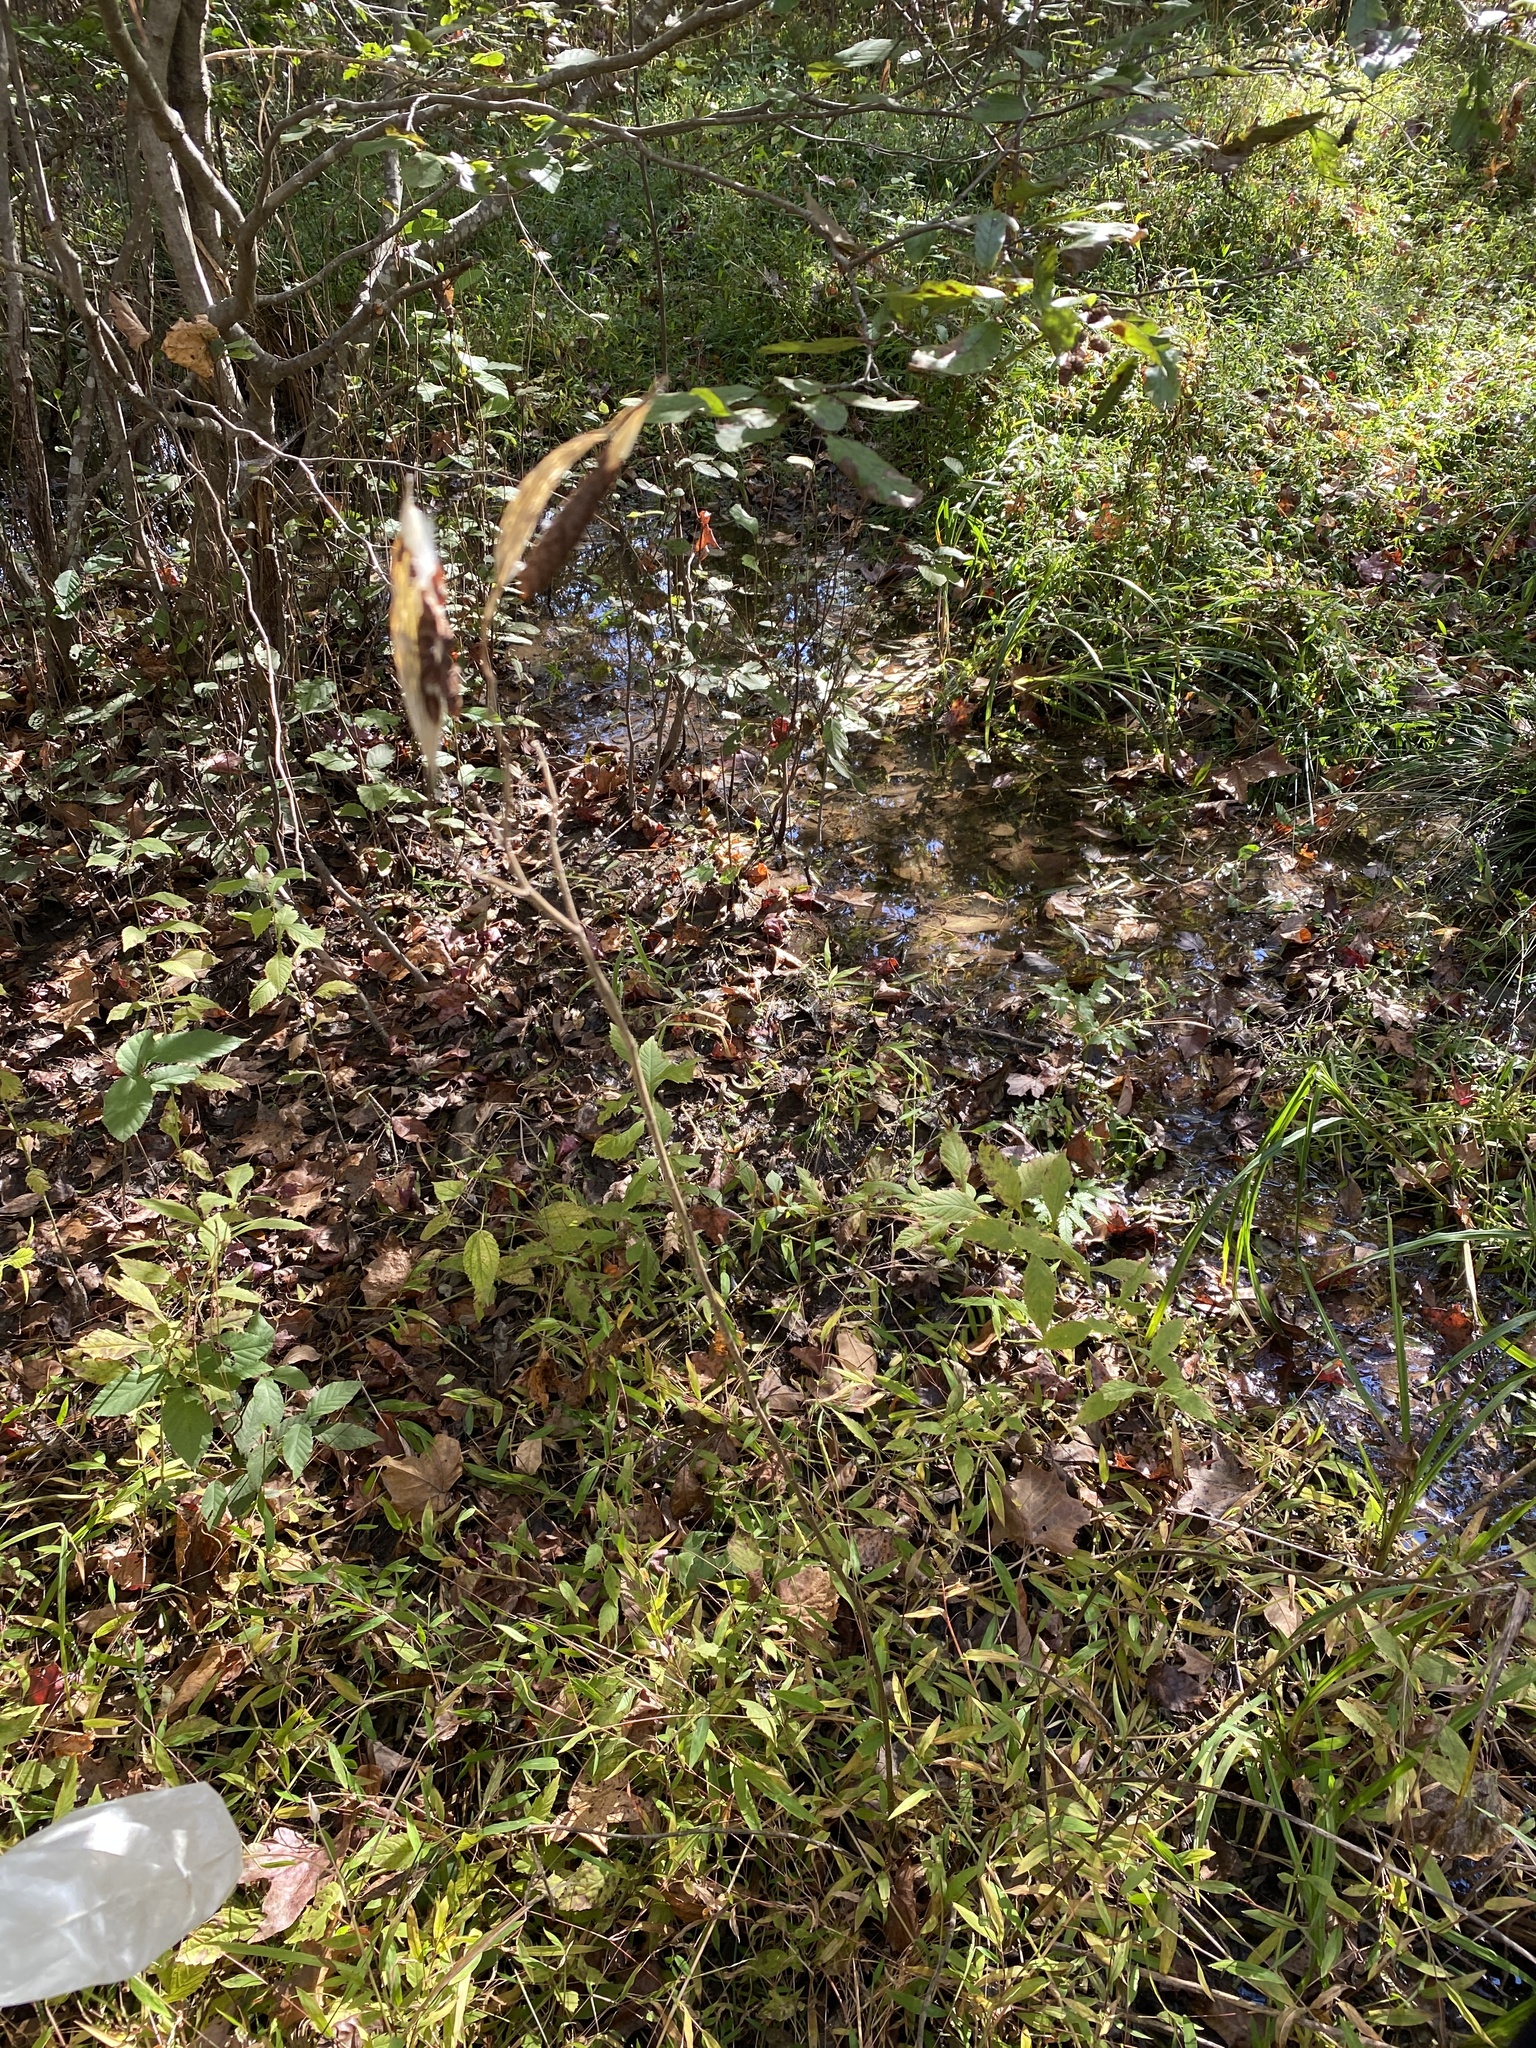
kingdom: Plantae
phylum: Tracheophyta
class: Magnoliopsida
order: Gentianales
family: Apocynaceae
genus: Asclepias
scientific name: Asclepias incarnata
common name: Swamp milkweed
